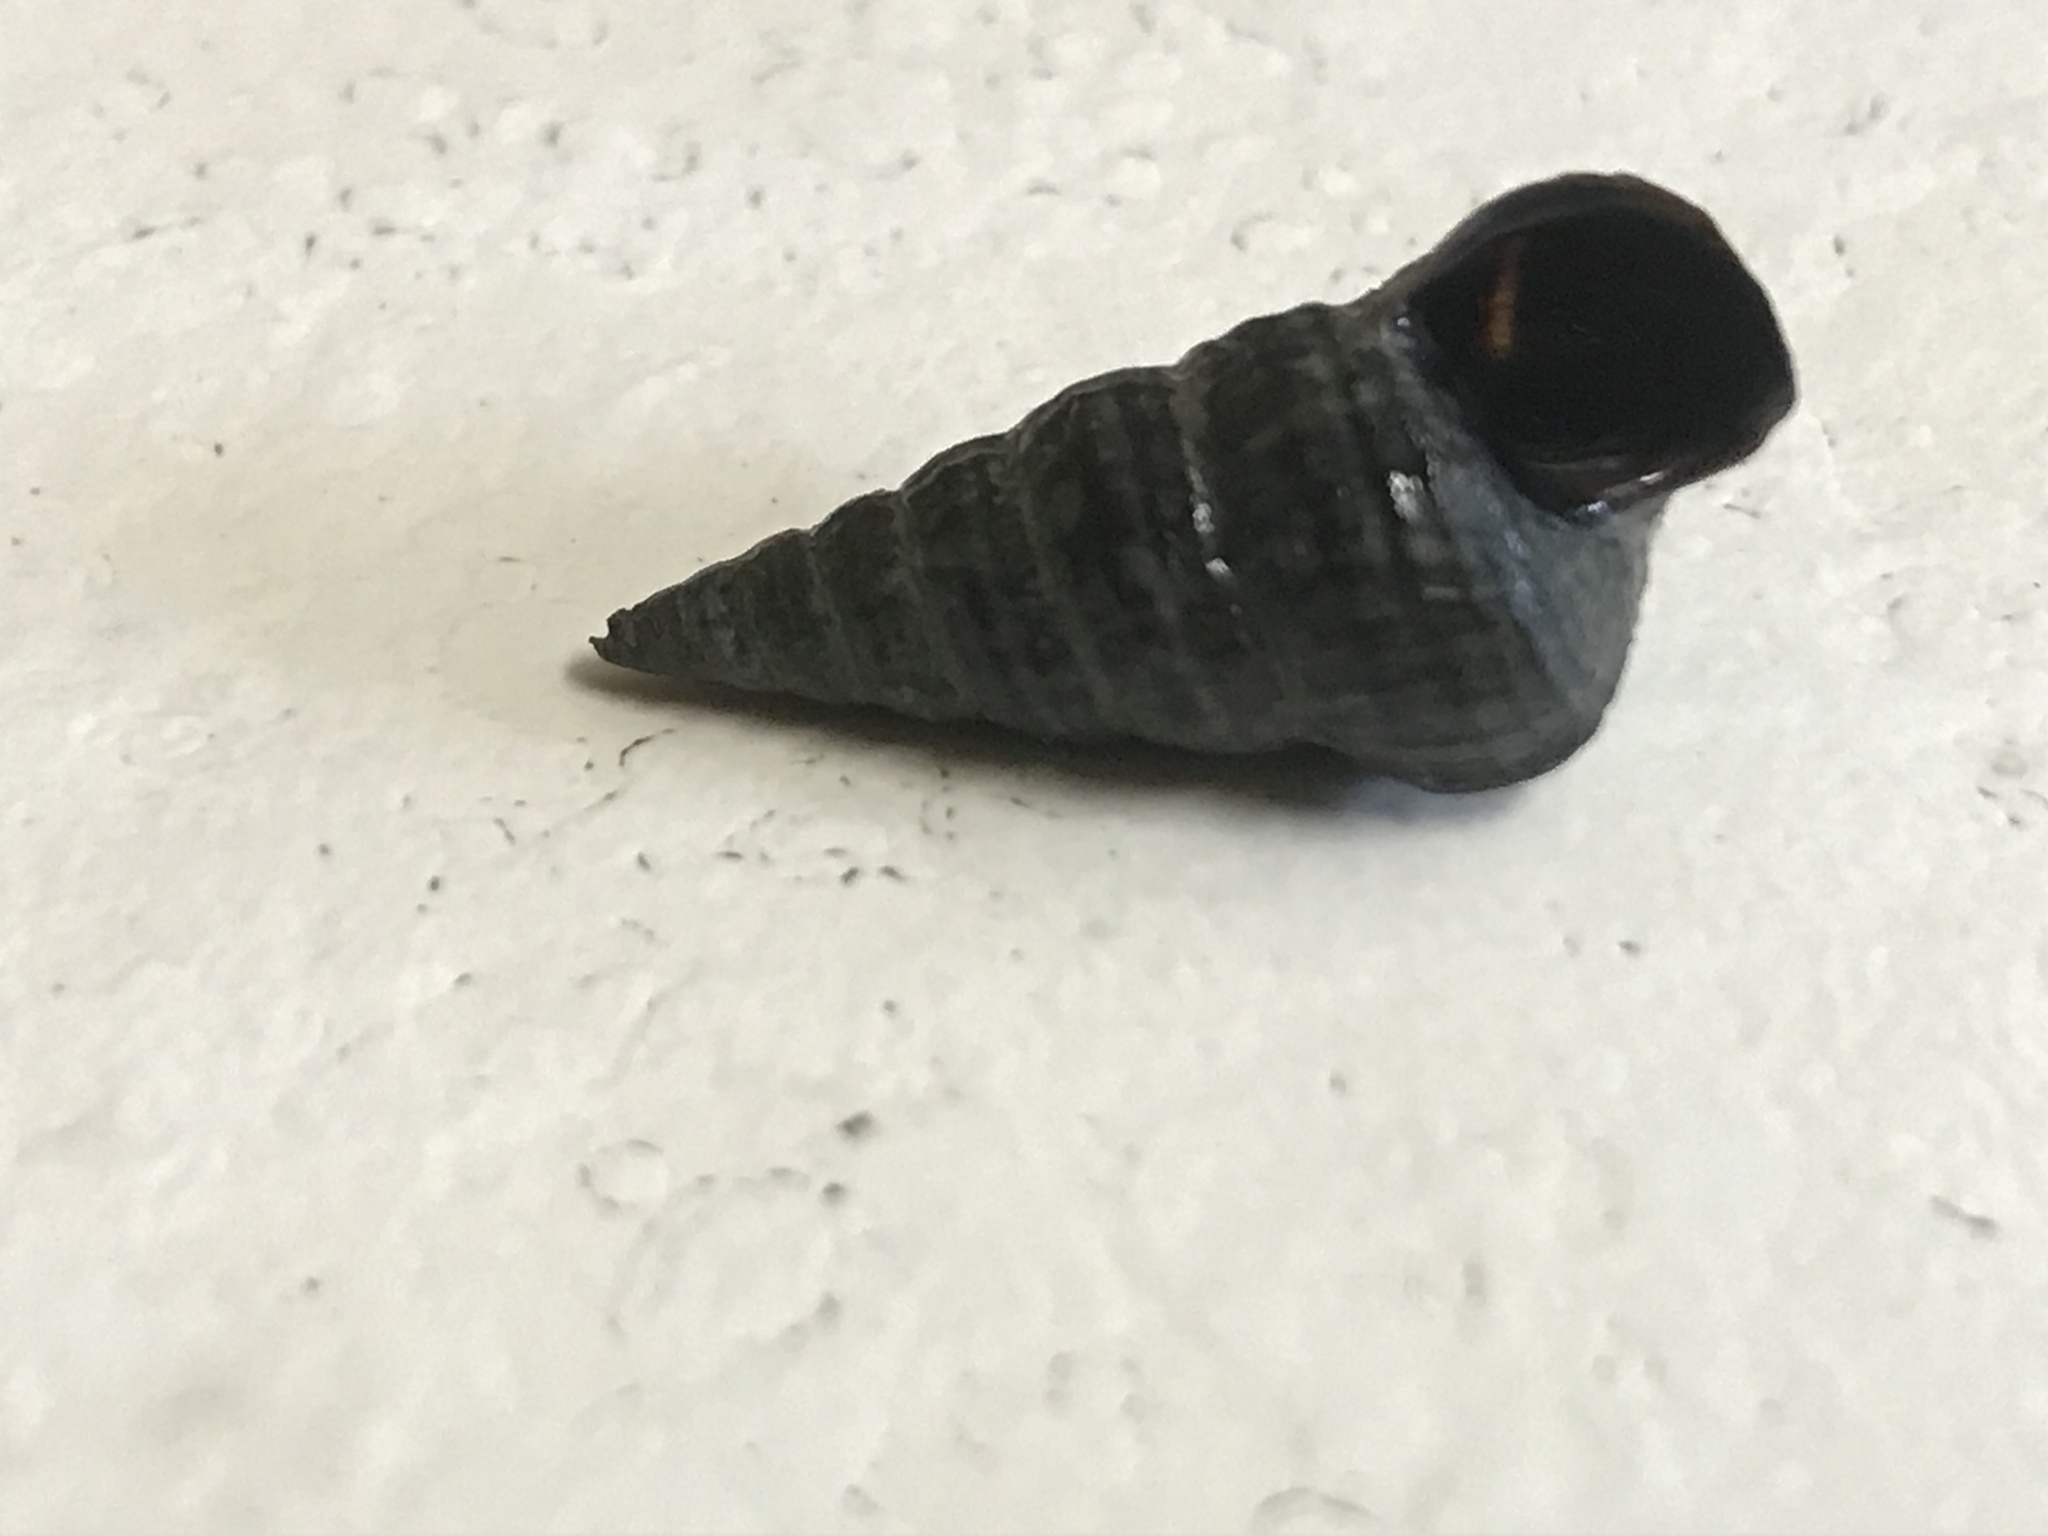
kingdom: Animalia
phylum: Mollusca
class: Gastropoda
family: Potamididae
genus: Cerithideopsis
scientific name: Cerithideopsis californica
